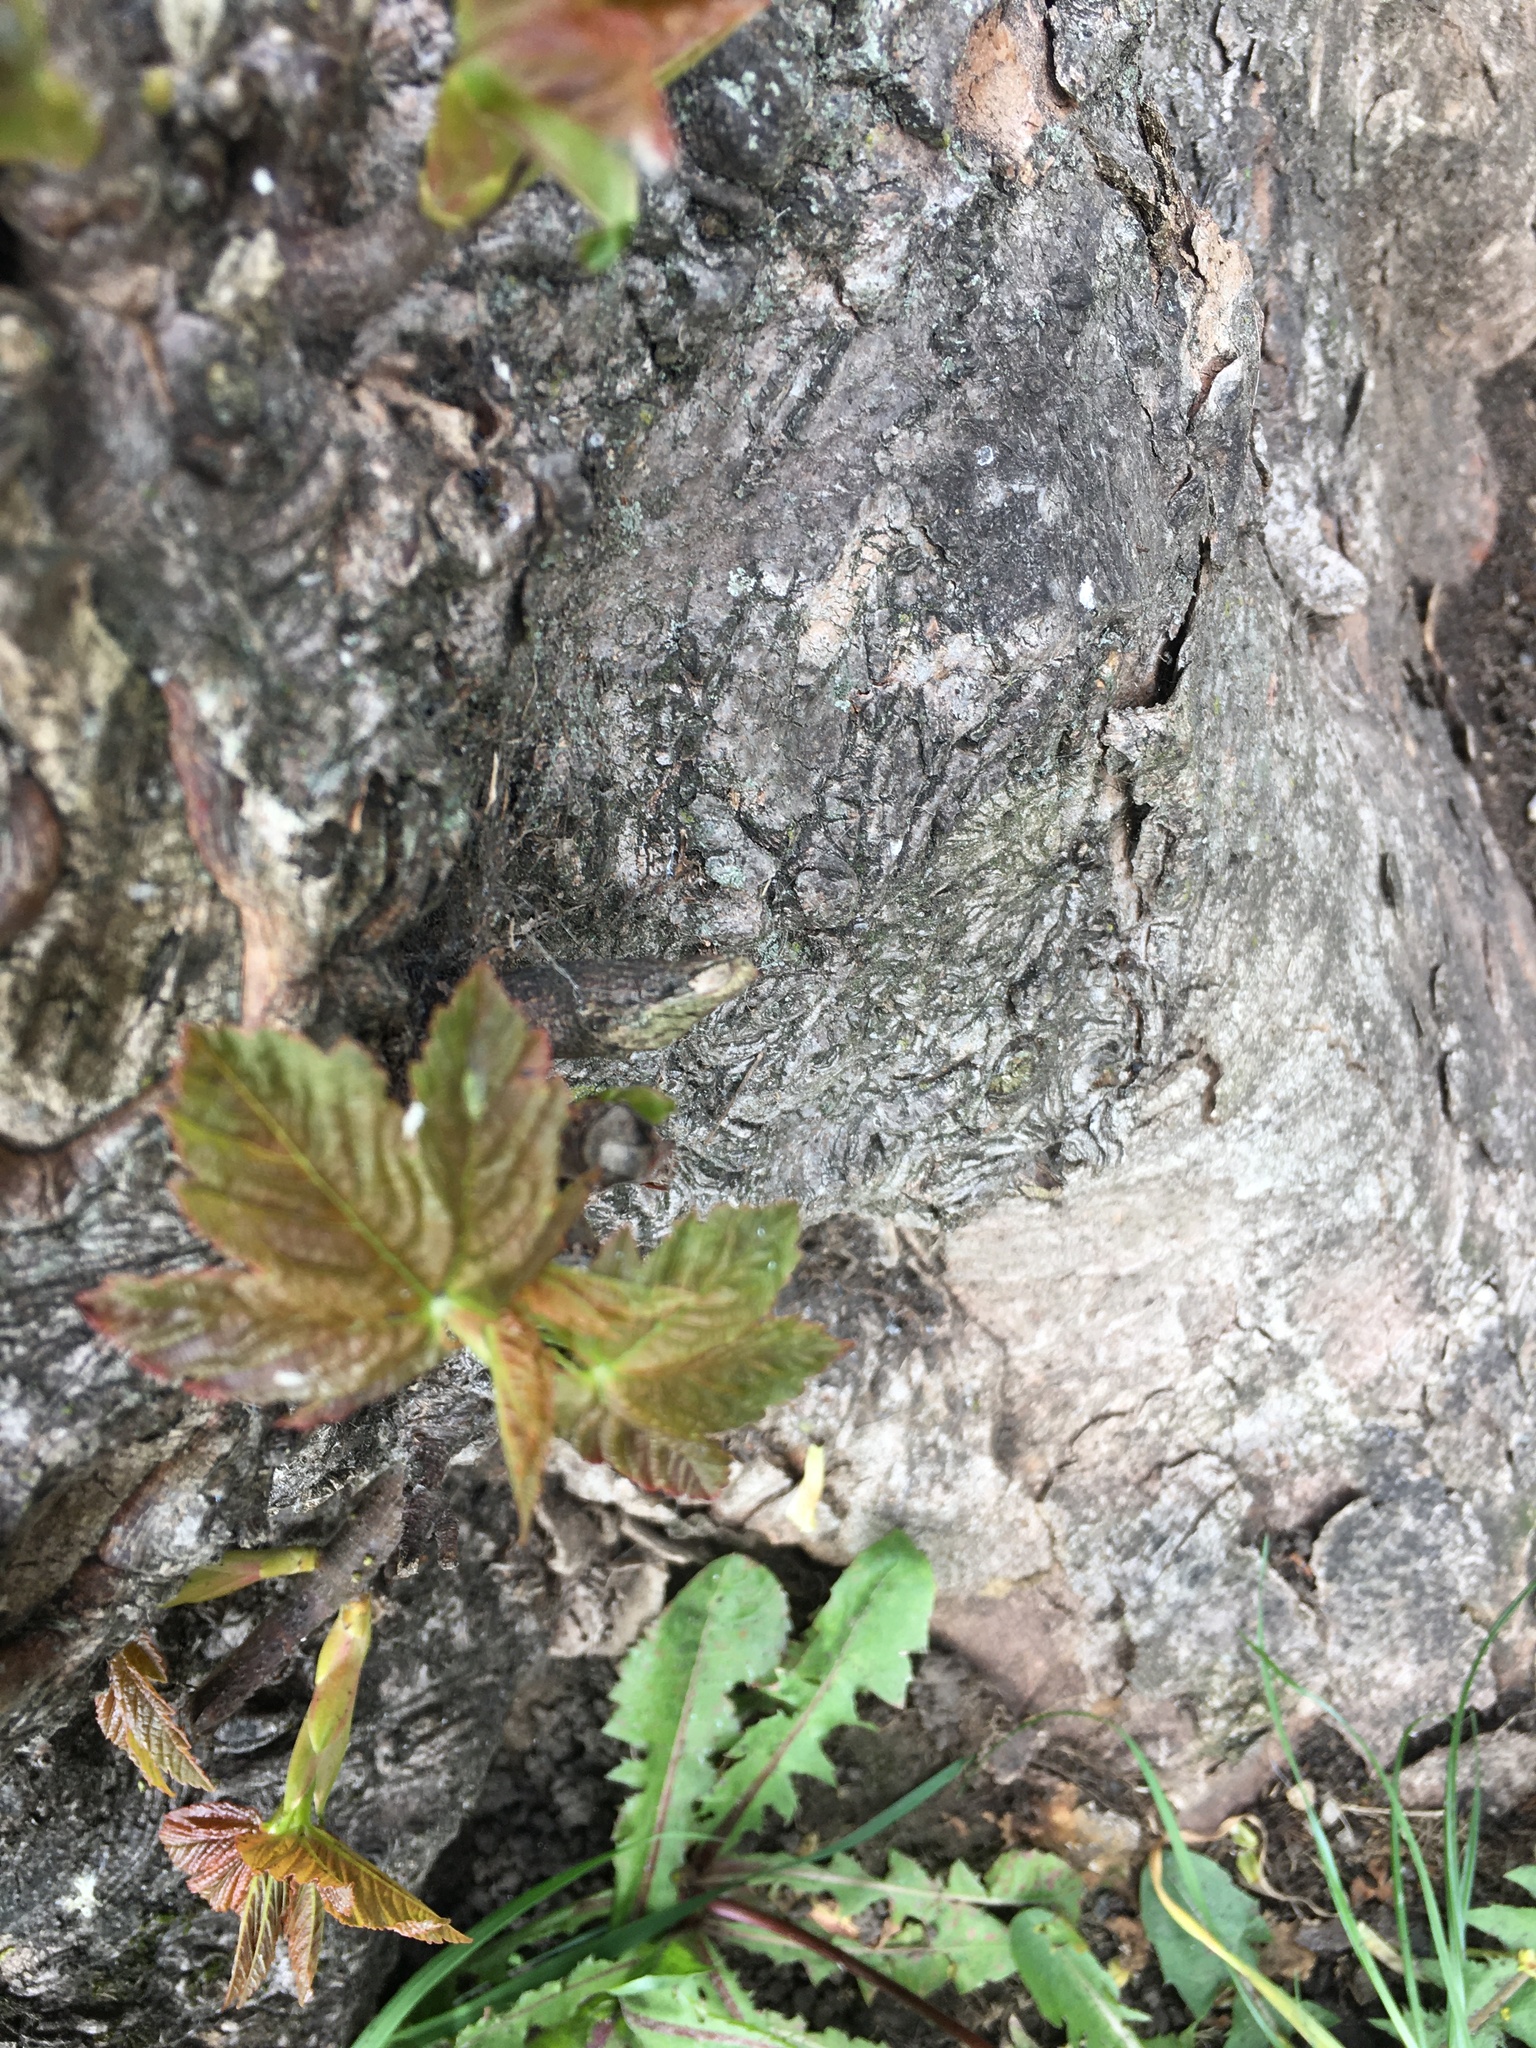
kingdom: Plantae
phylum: Tracheophyta
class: Magnoliopsida
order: Sapindales
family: Sapindaceae
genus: Acer
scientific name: Acer pseudoplatanus
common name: Sycamore
